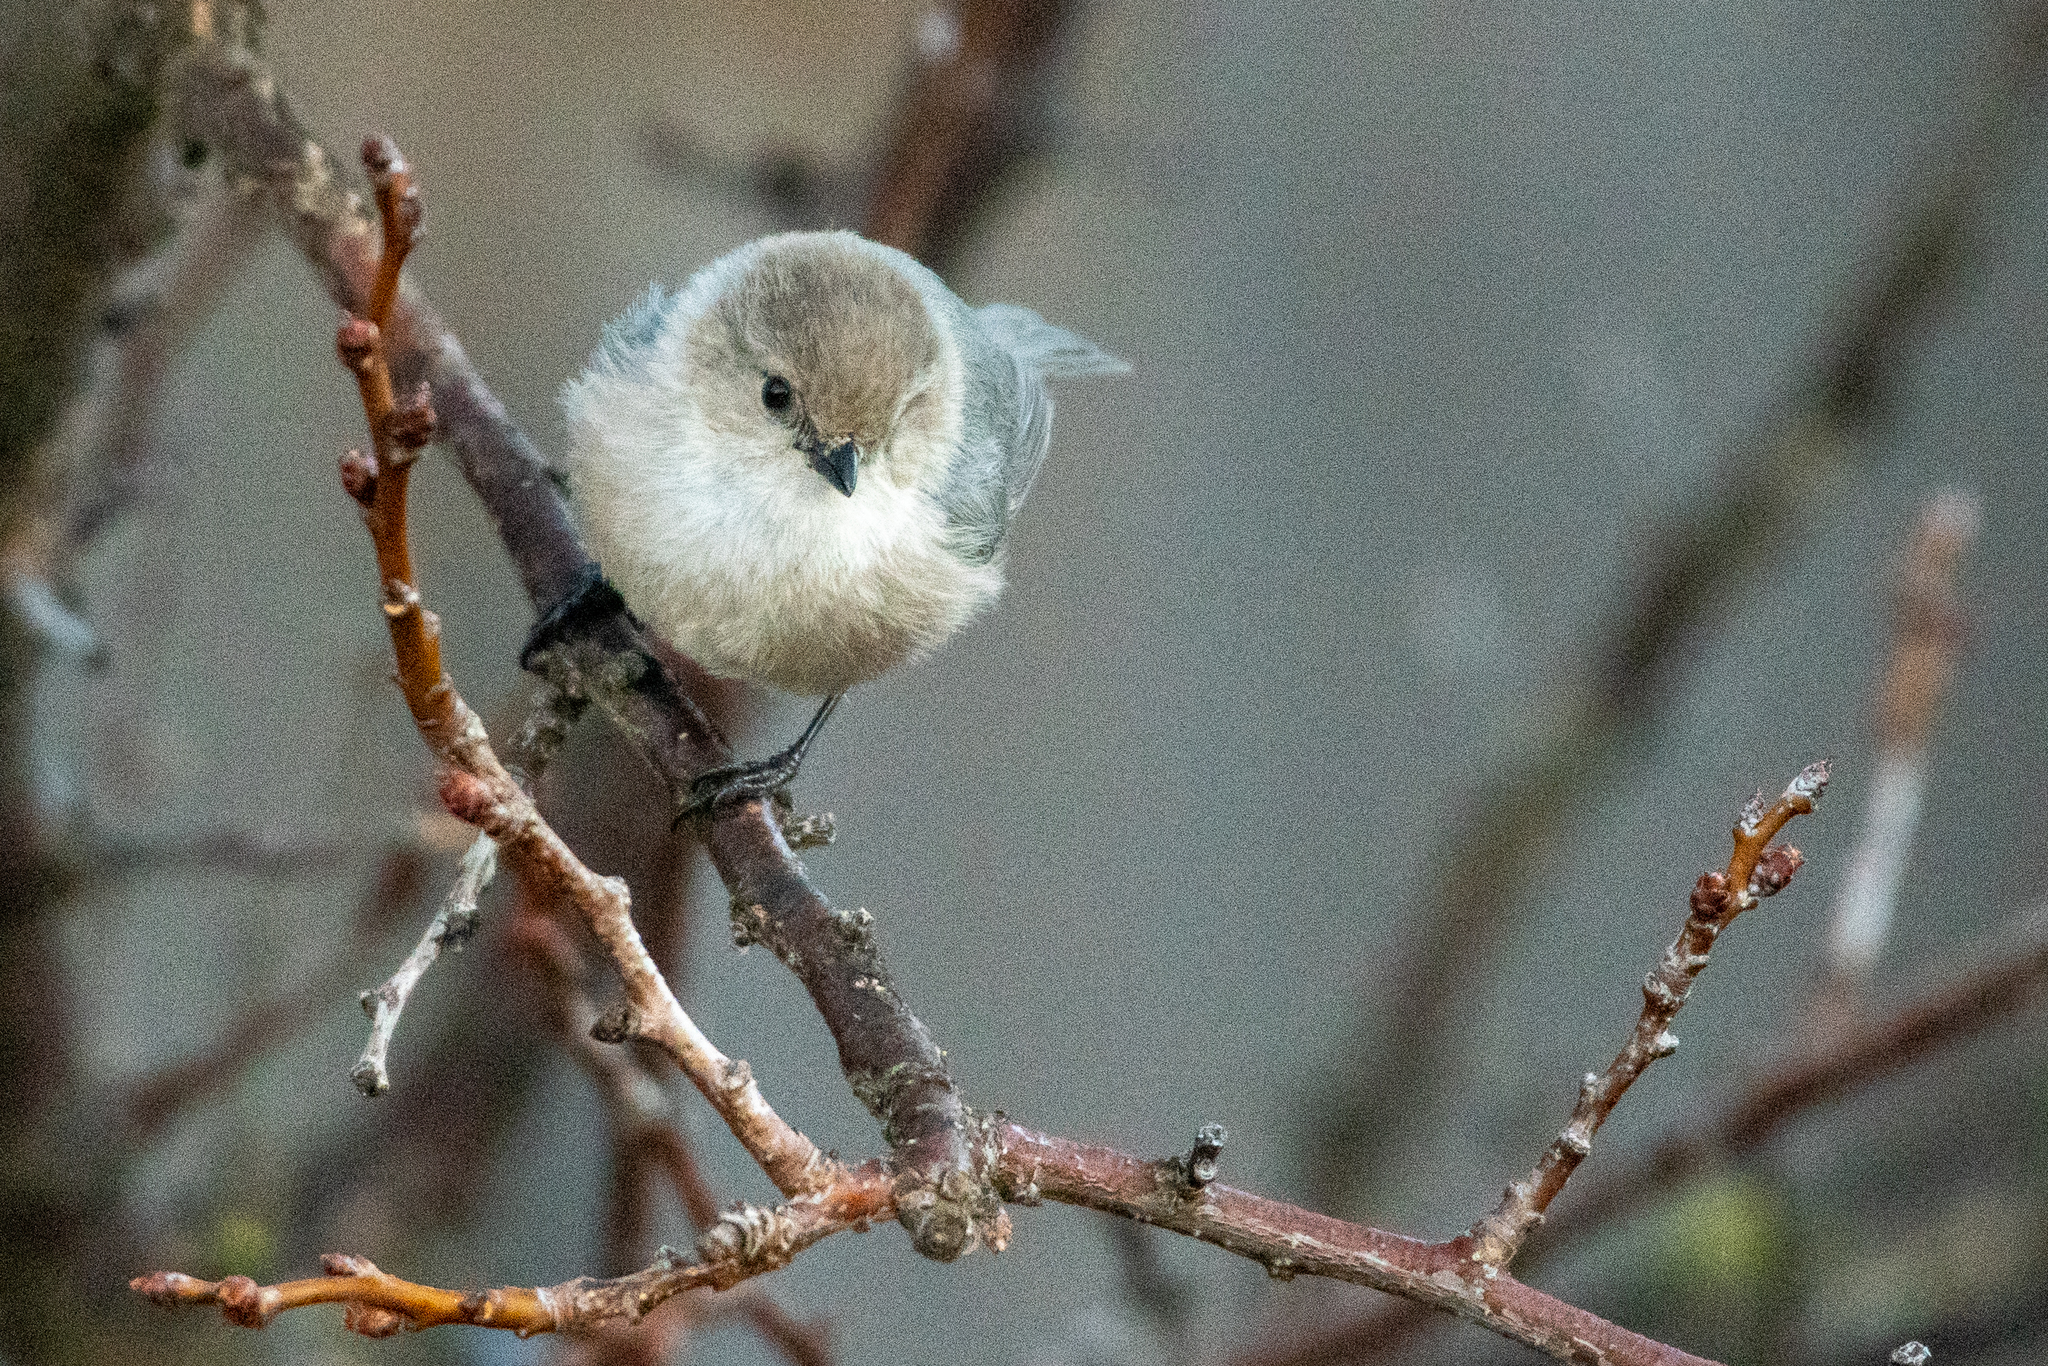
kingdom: Animalia
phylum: Chordata
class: Aves
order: Passeriformes
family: Aegithalidae
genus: Psaltriparus
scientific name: Psaltriparus minimus
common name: American bushtit
